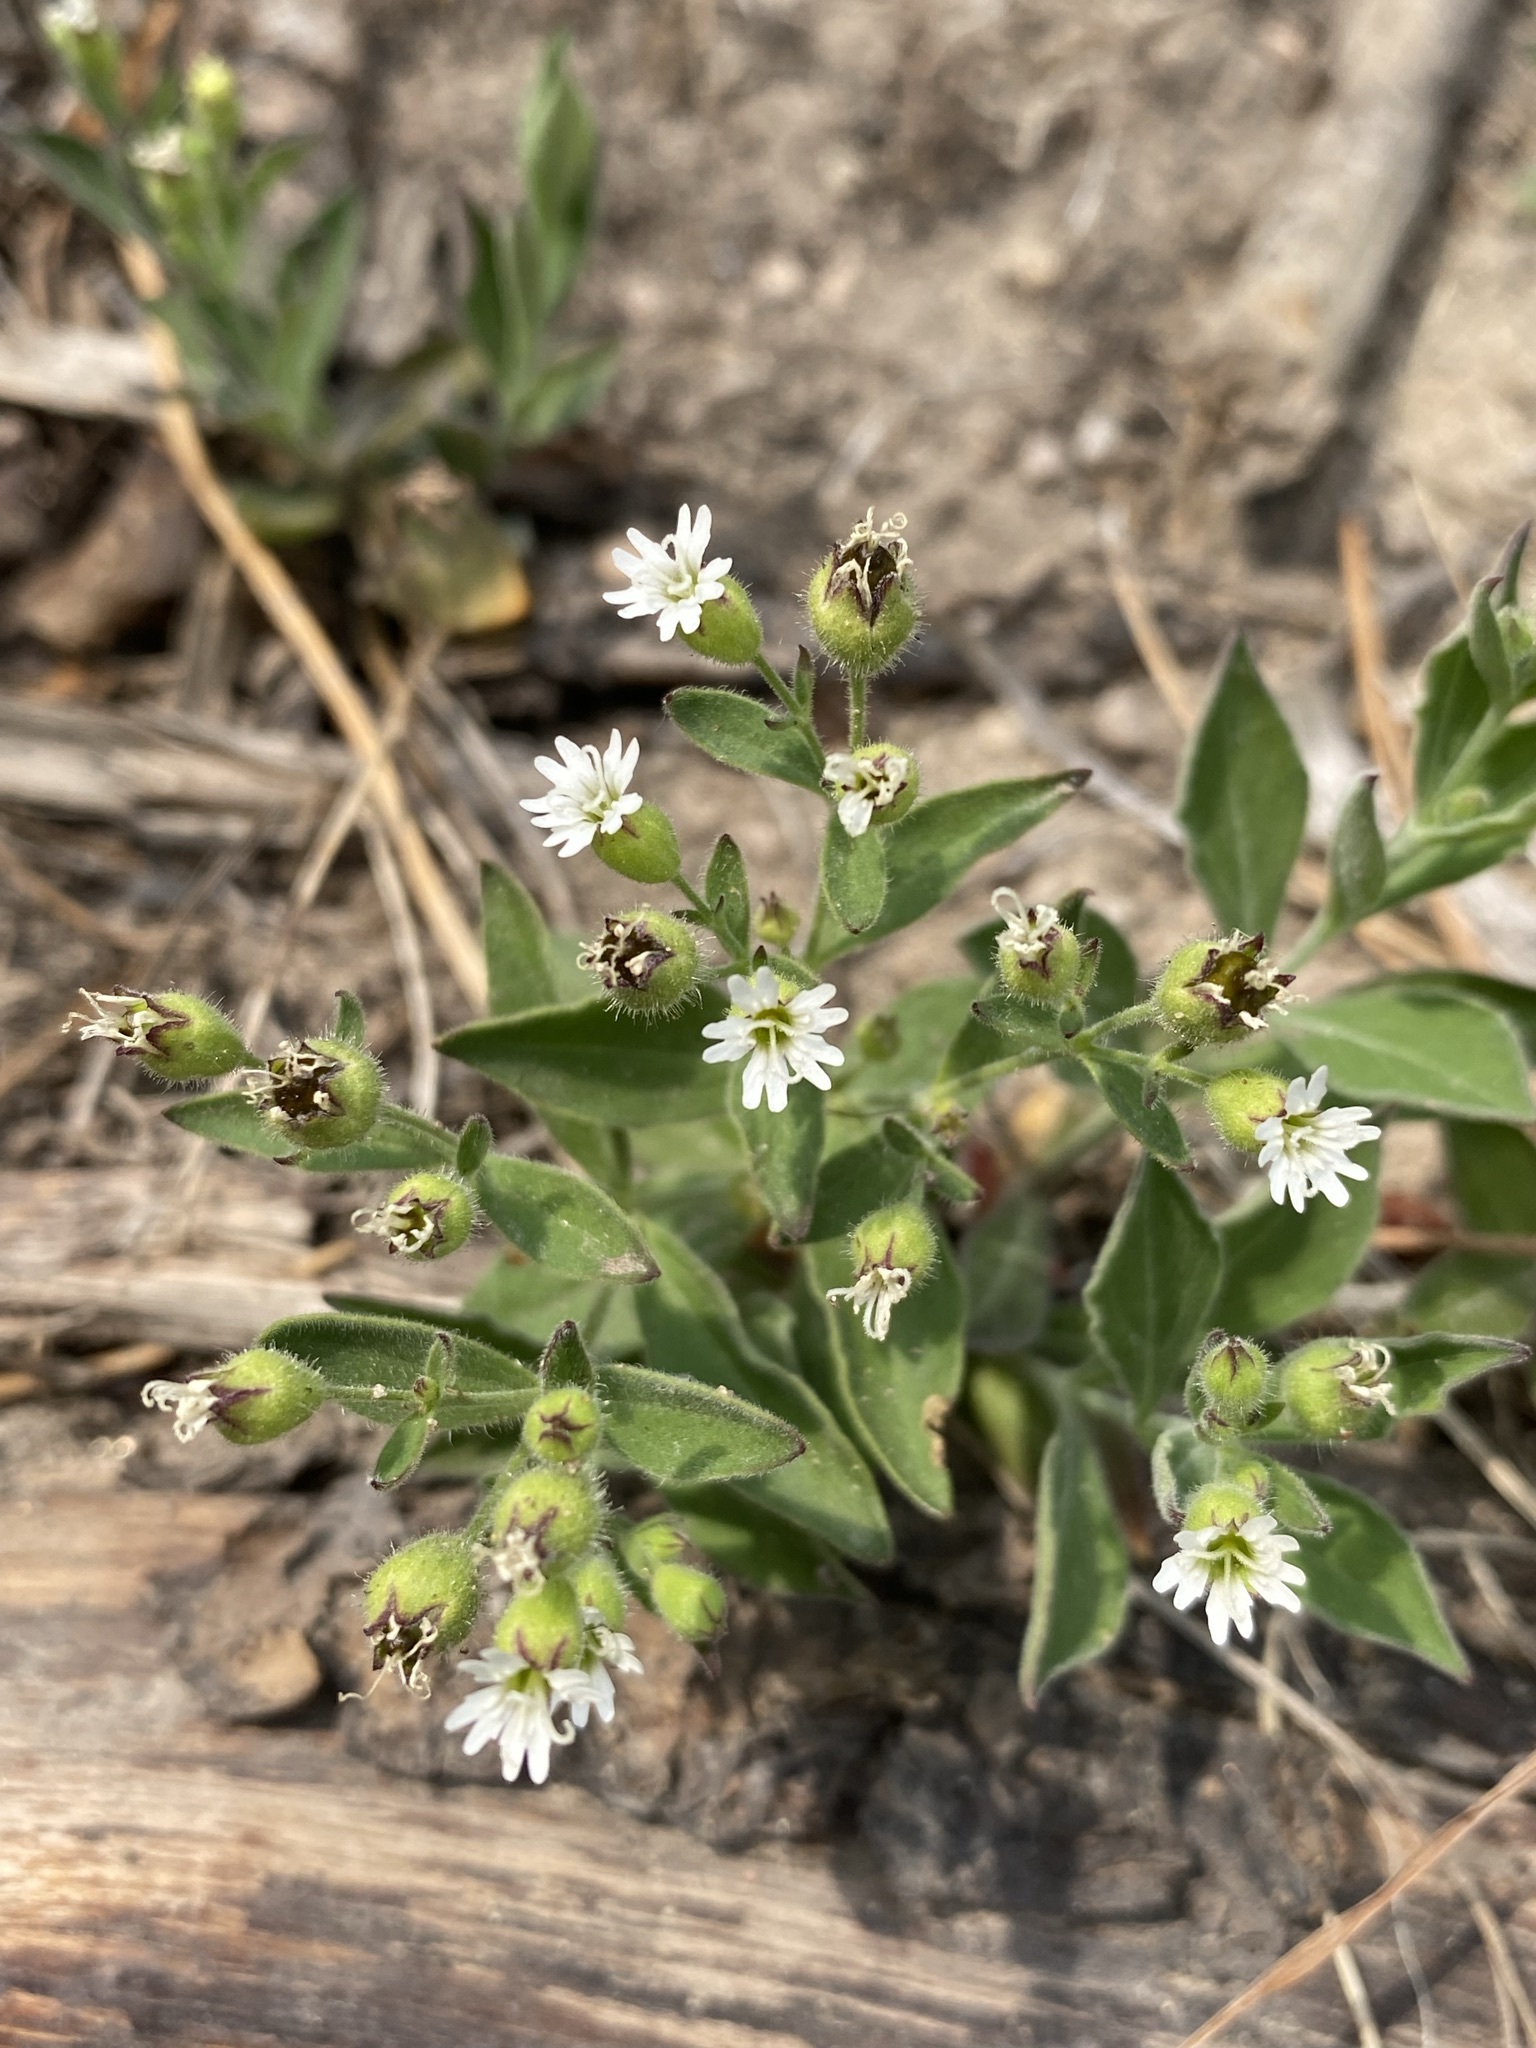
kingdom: Plantae
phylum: Tracheophyta
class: Magnoliopsida
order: Caryophyllales
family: Caryophyllaceae
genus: Silene
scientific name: Silene menziesii
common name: Menzies's catchfly
